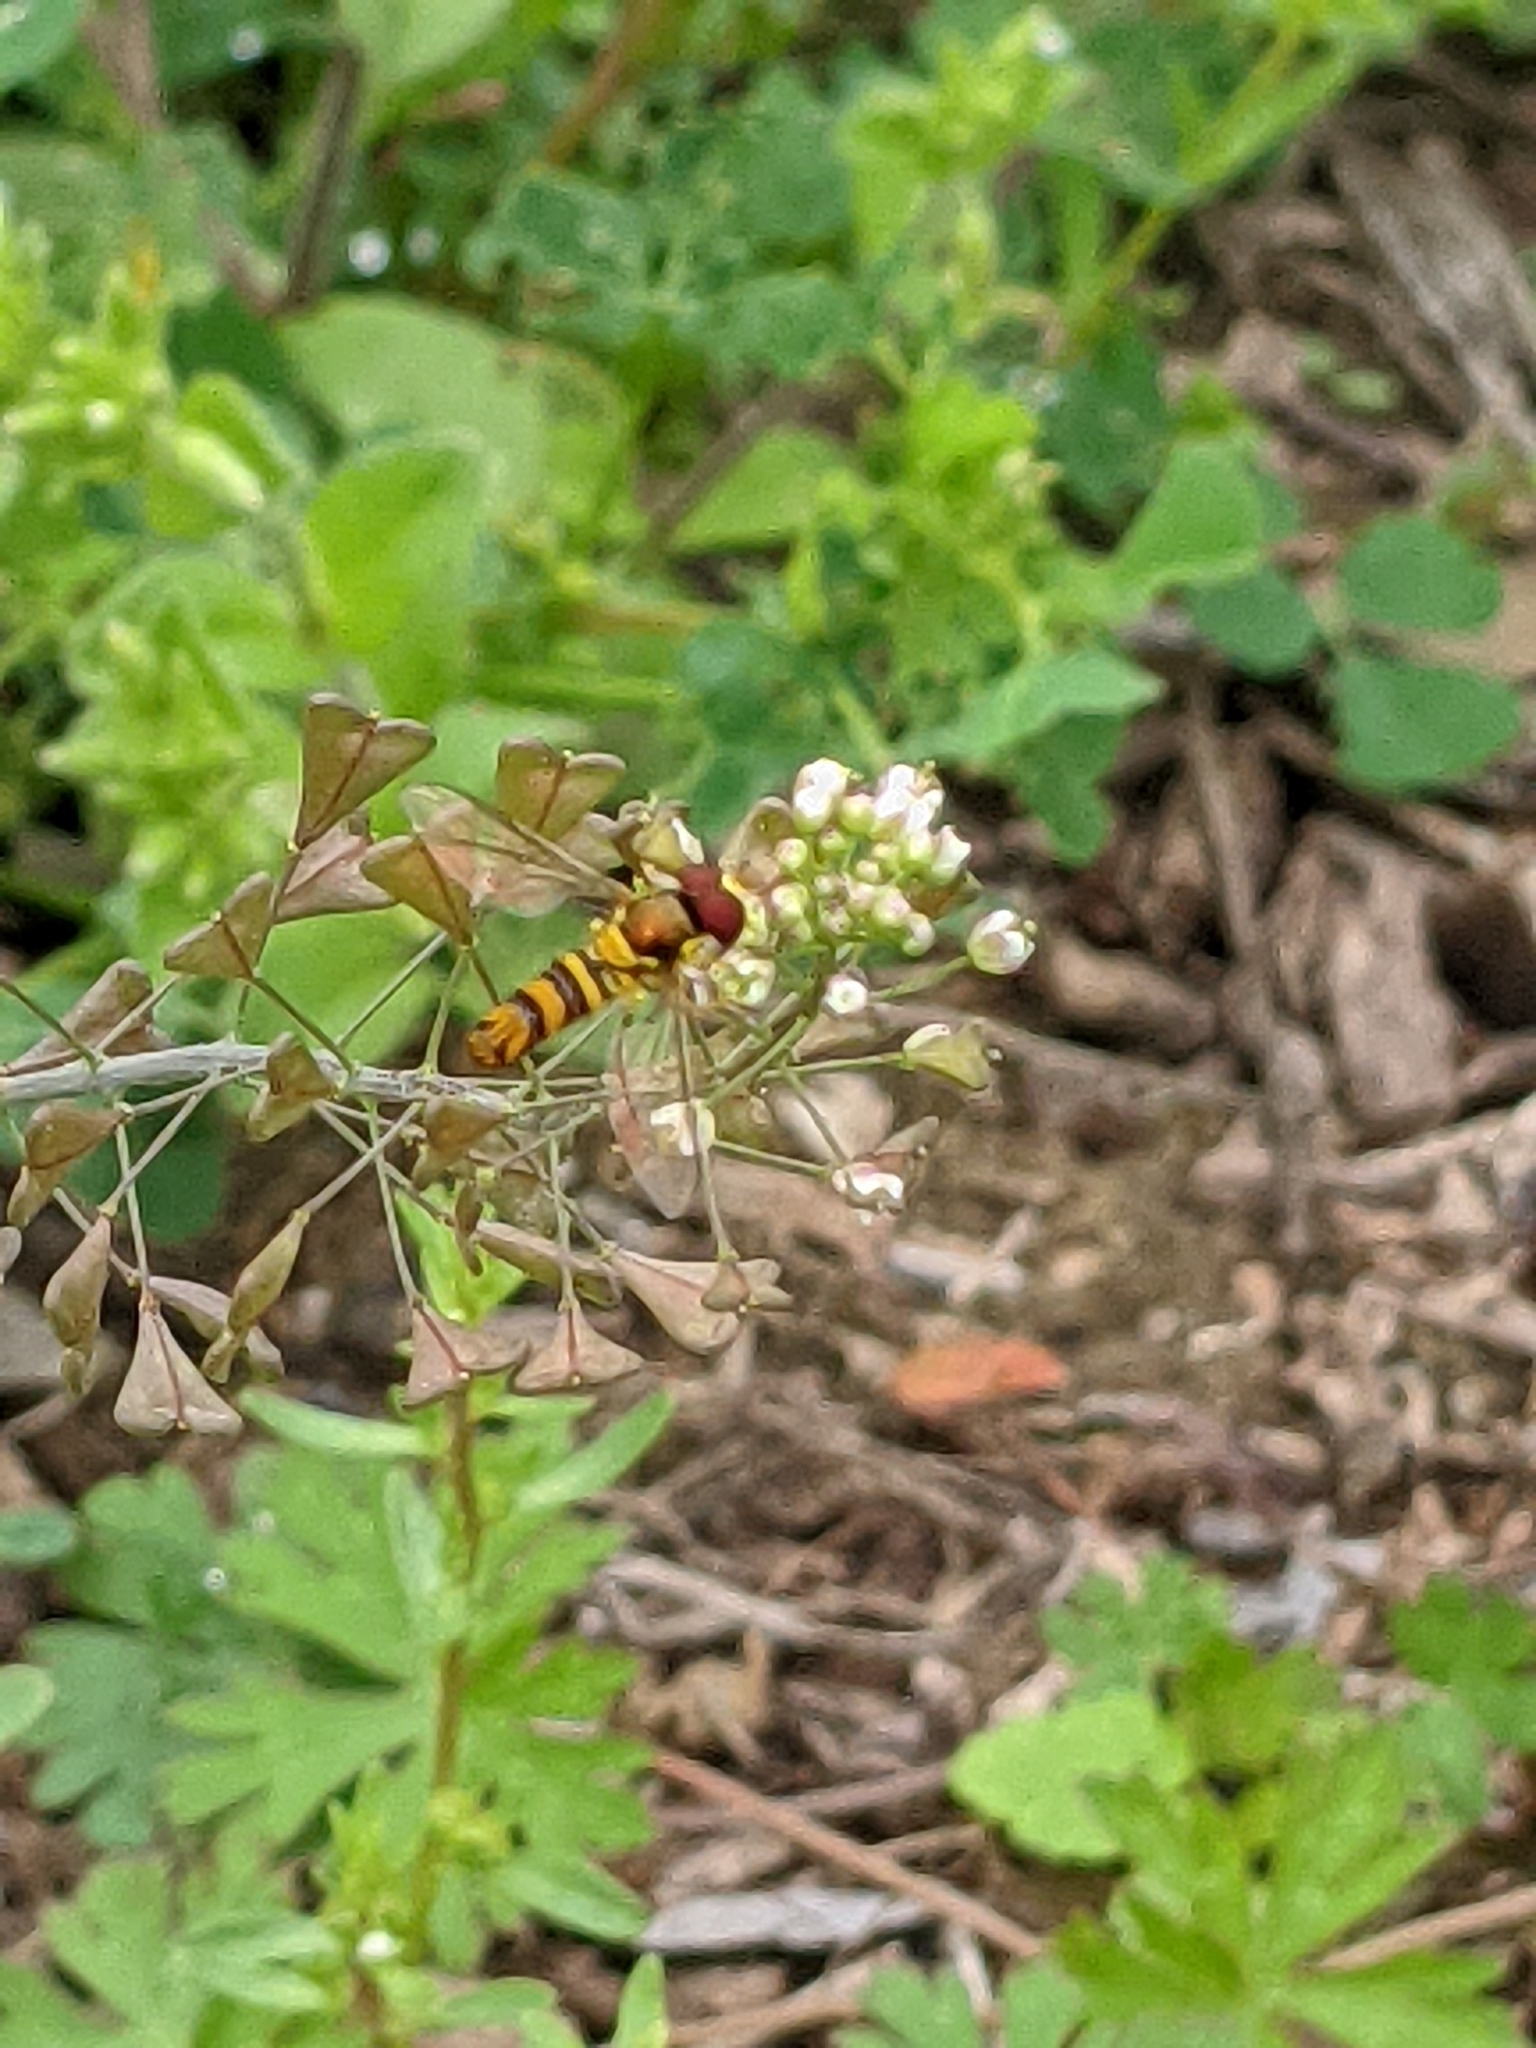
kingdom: Animalia
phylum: Arthropoda
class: Insecta
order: Diptera
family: Syrphidae
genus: Allograpta
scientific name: Allograpta obliqua
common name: Common oblique syrphid
